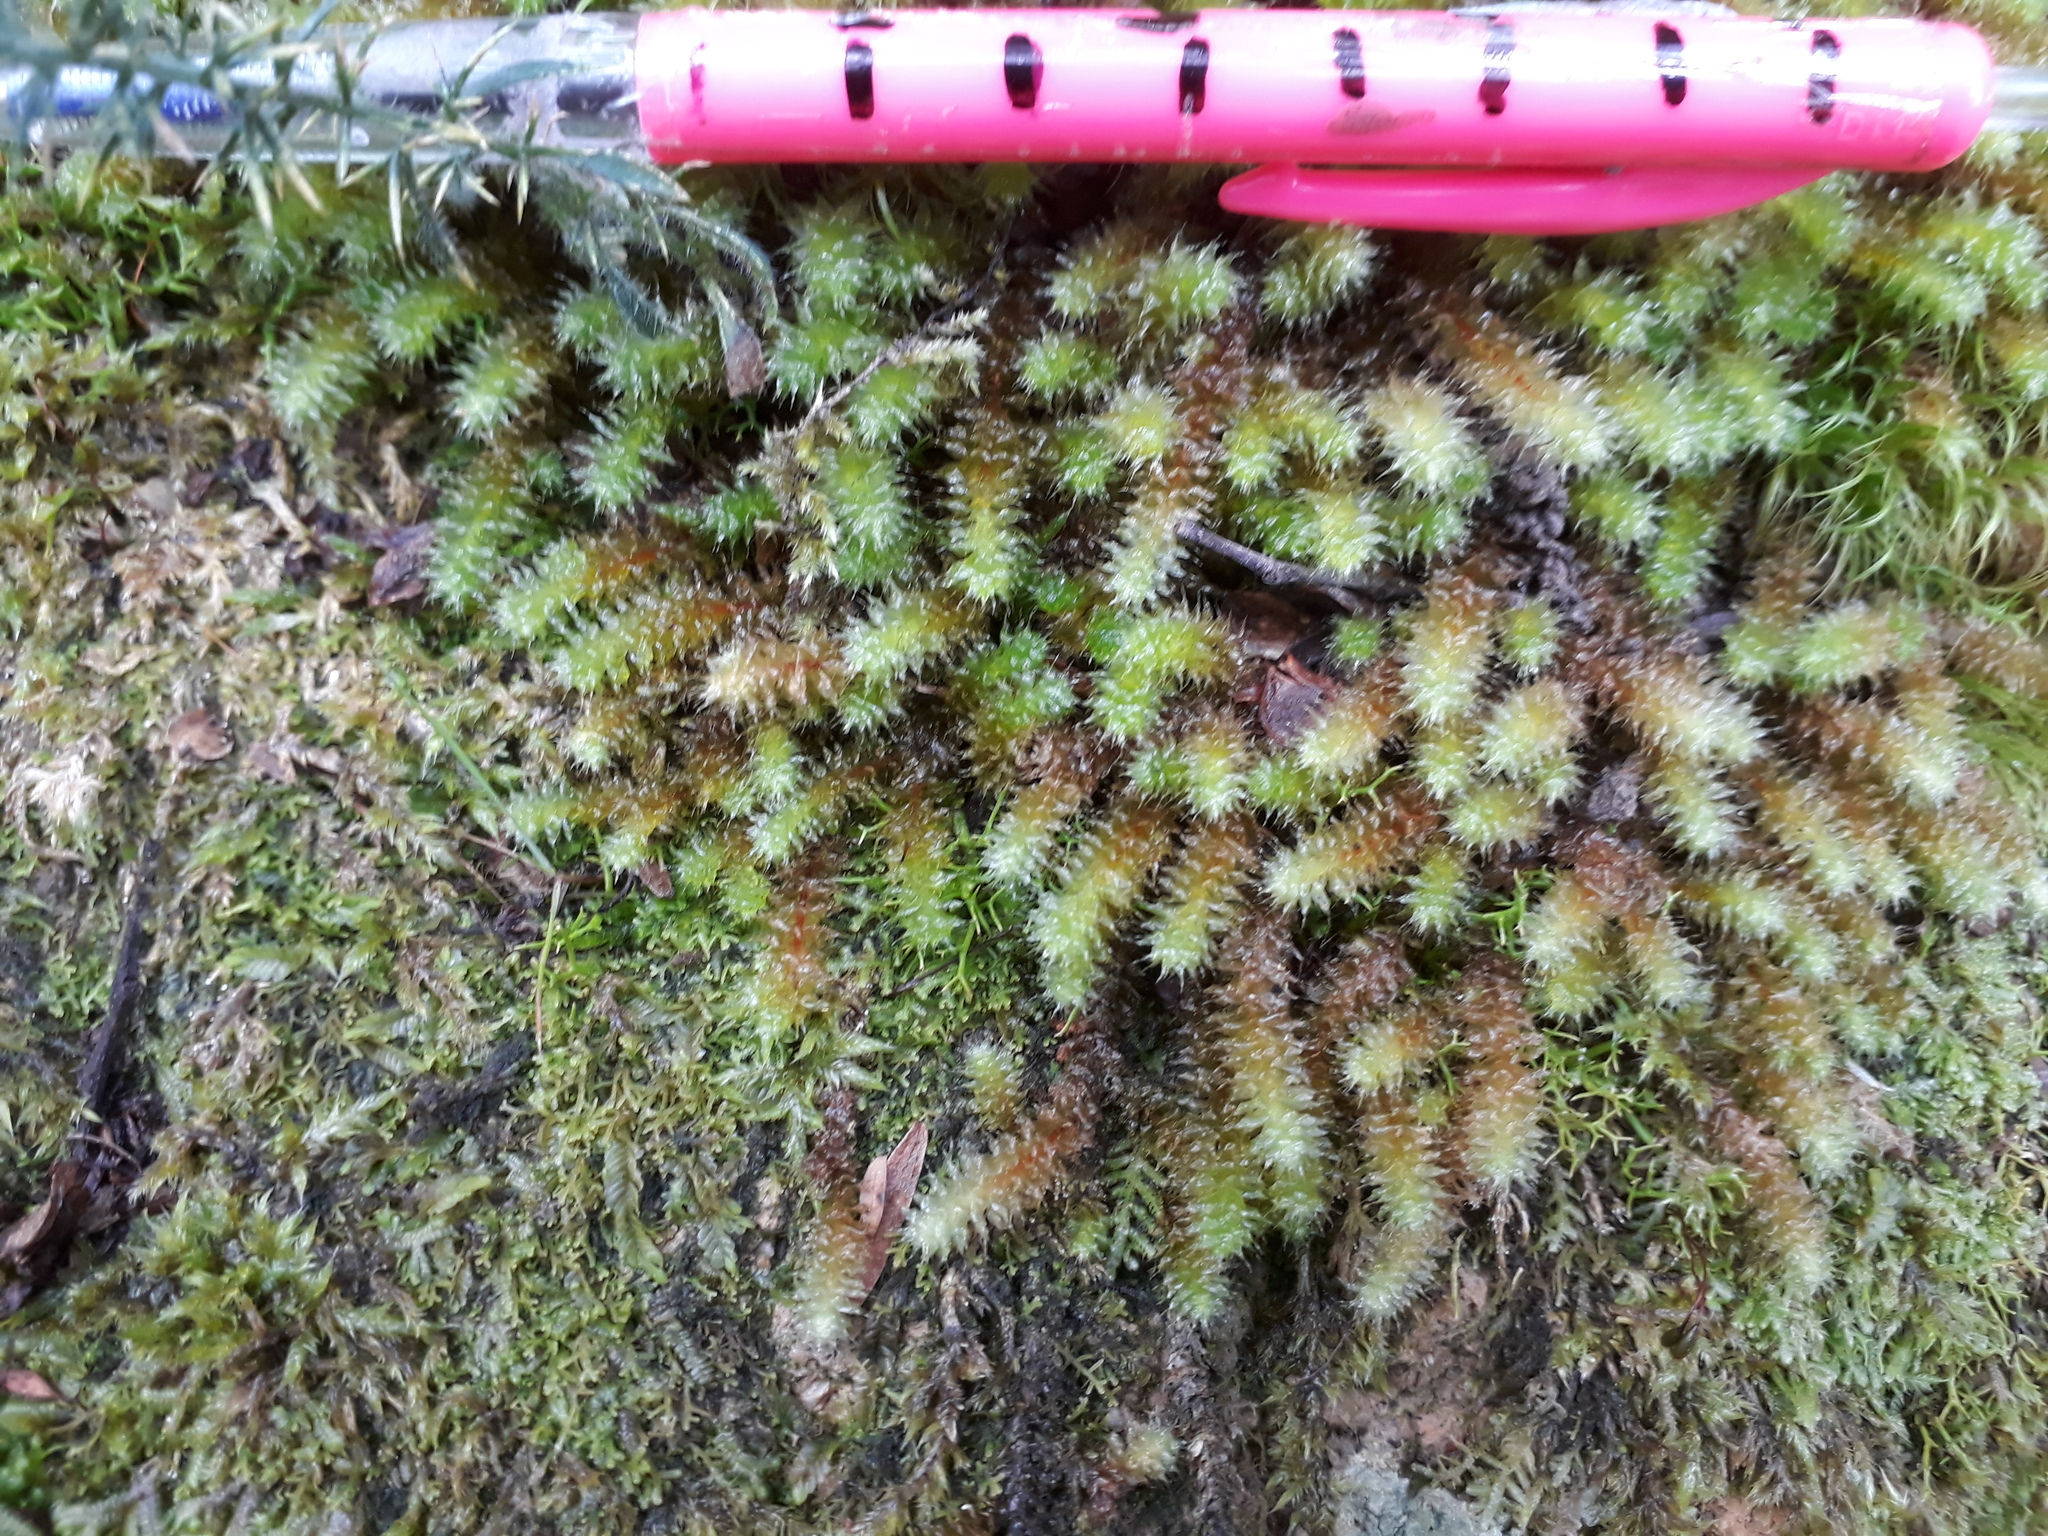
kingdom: Plantae
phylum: Bryophyta
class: Bryopsida
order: Ptychomniales
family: Ptychomniaceae
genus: Ptychomnion
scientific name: Ptychomnion aciculare
